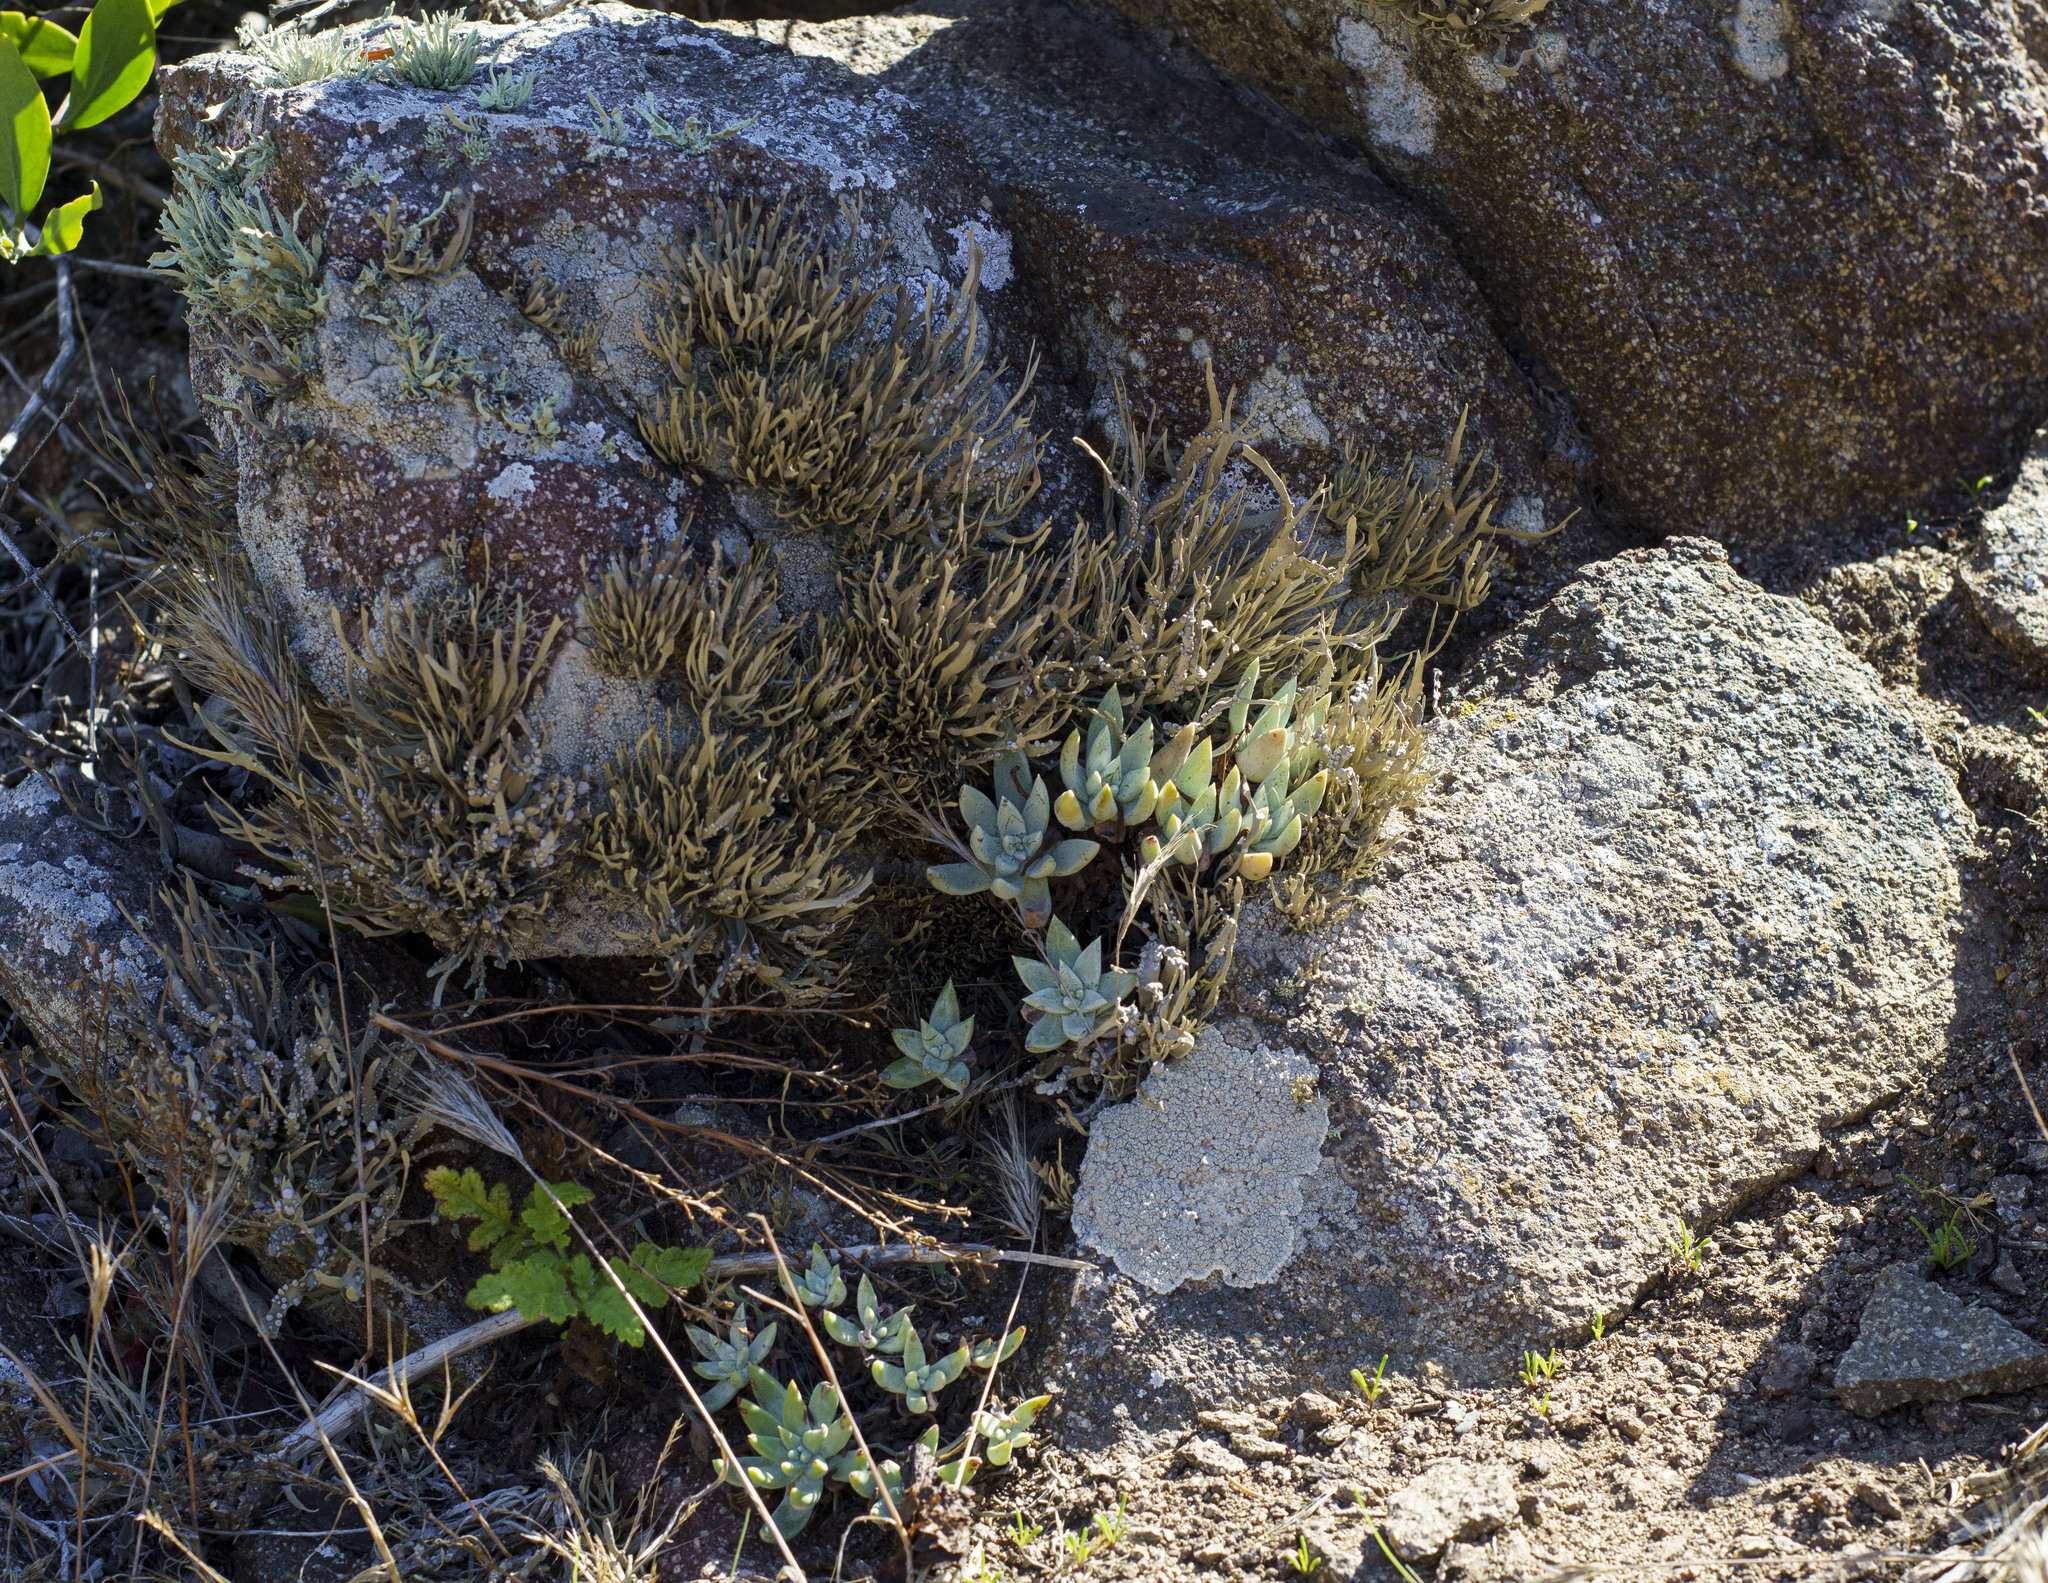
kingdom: Plantae
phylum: Tracheophyta
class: Magnoliopsida
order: Saxifragales
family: Crassulaceae
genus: Dudleya
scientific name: Dudleya campanulata
